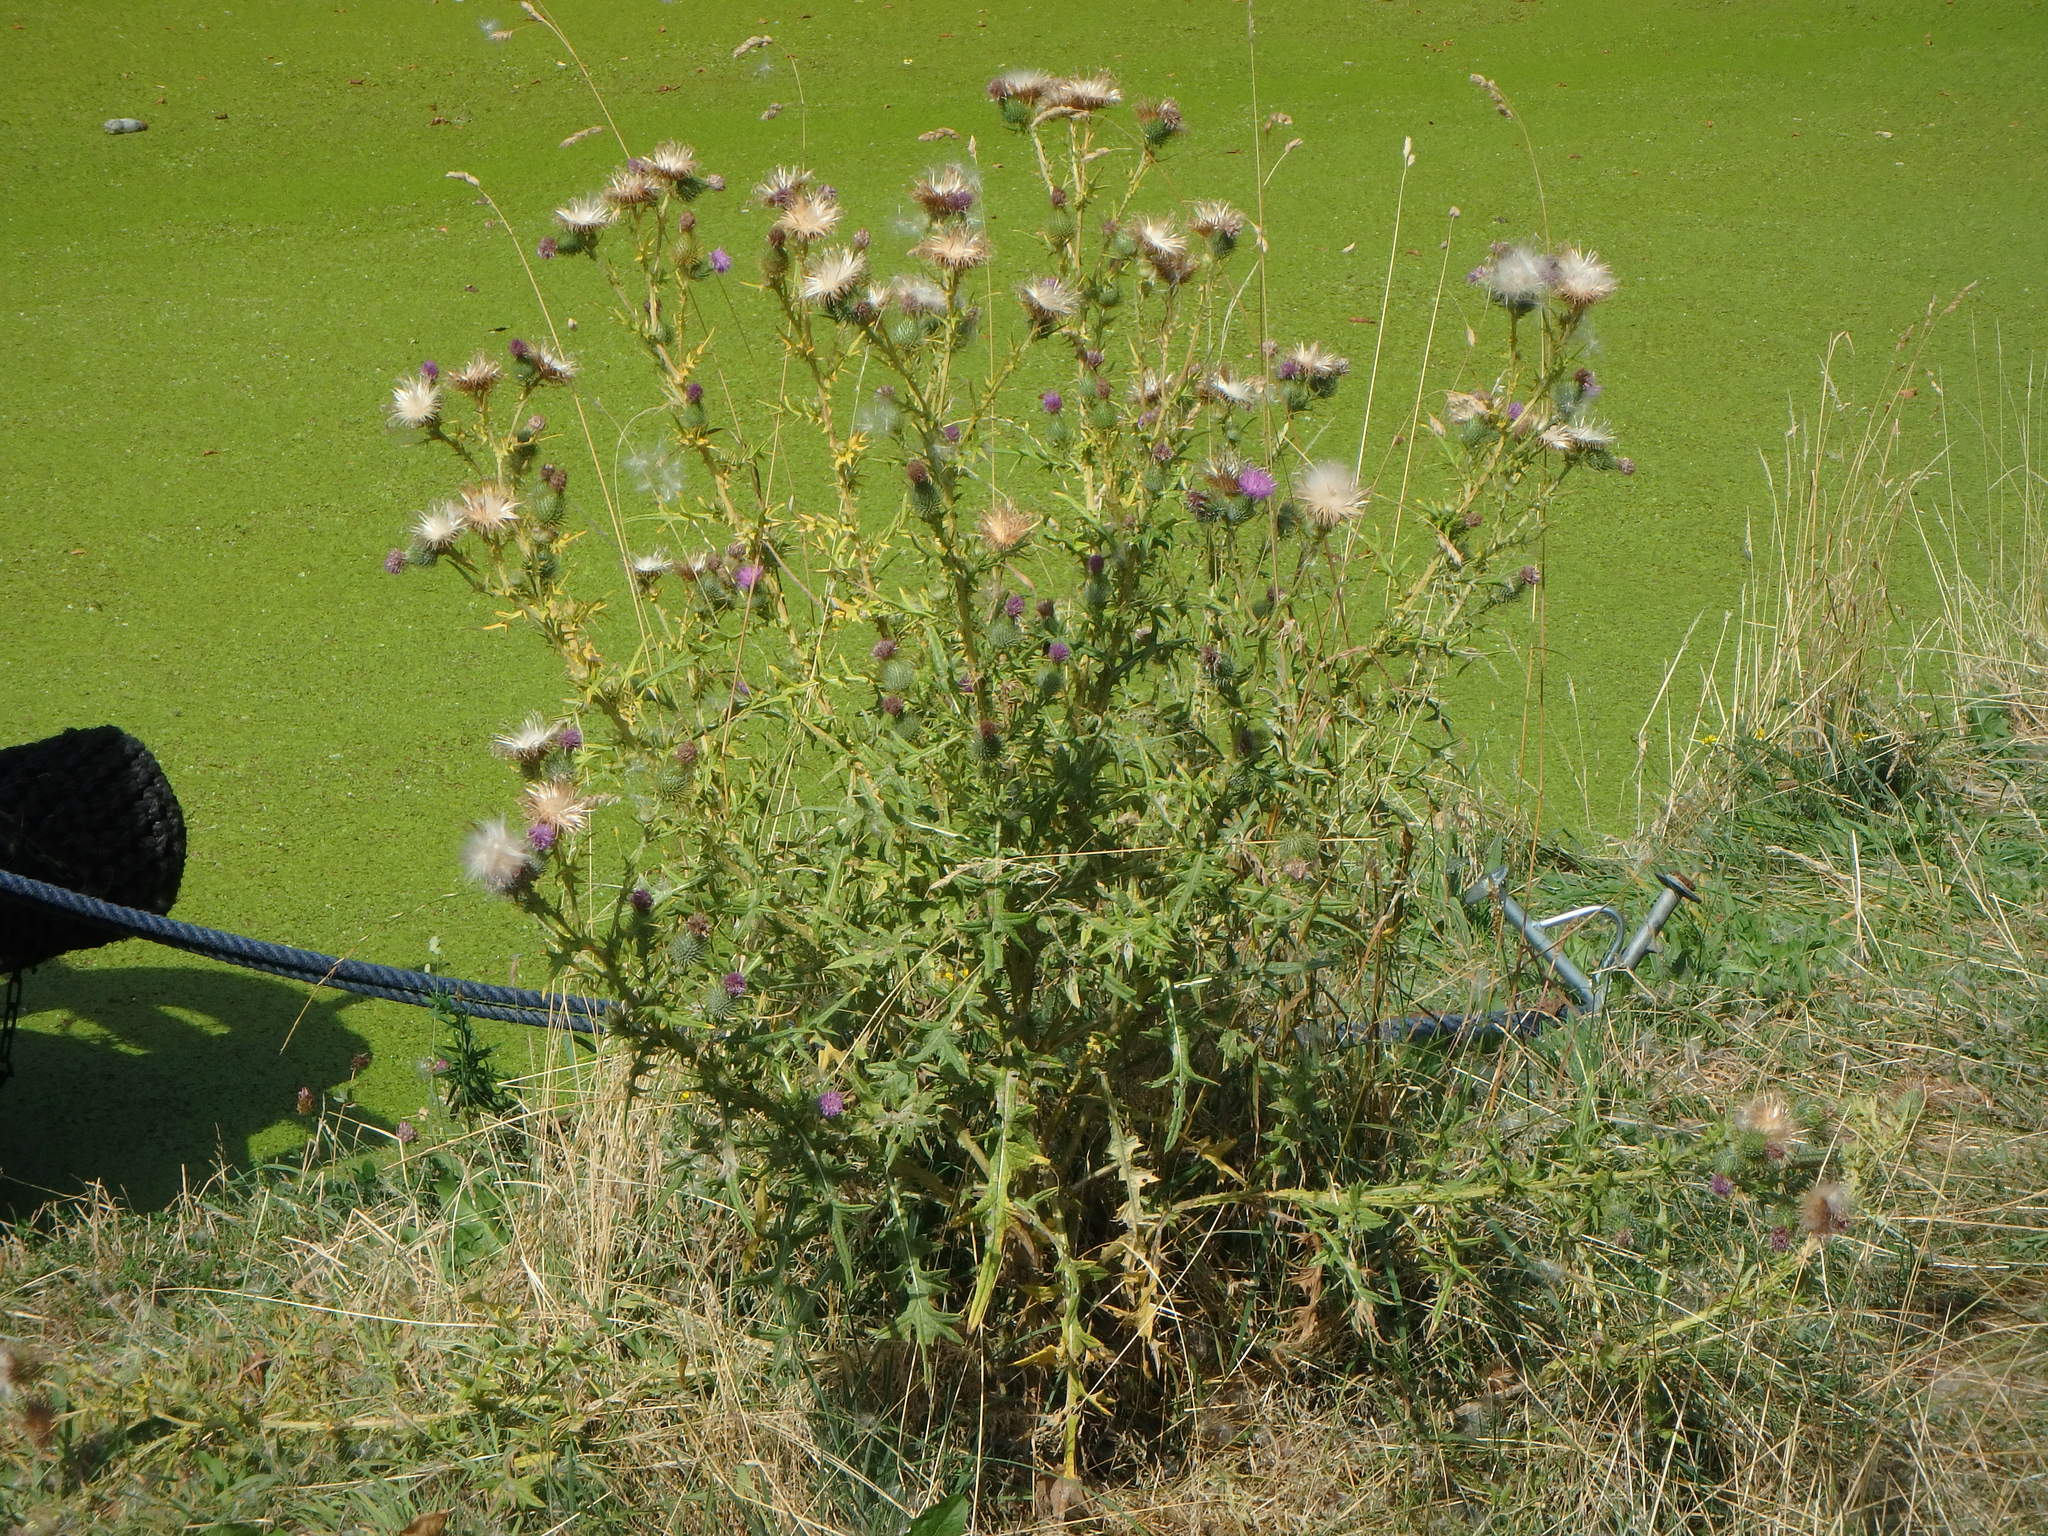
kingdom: Plantae
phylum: Tracheophyta
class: Magnoliopsida
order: Asterales
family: Asteraceae
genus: Cirsium
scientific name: Cirsium vulgare
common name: Bull thistle
